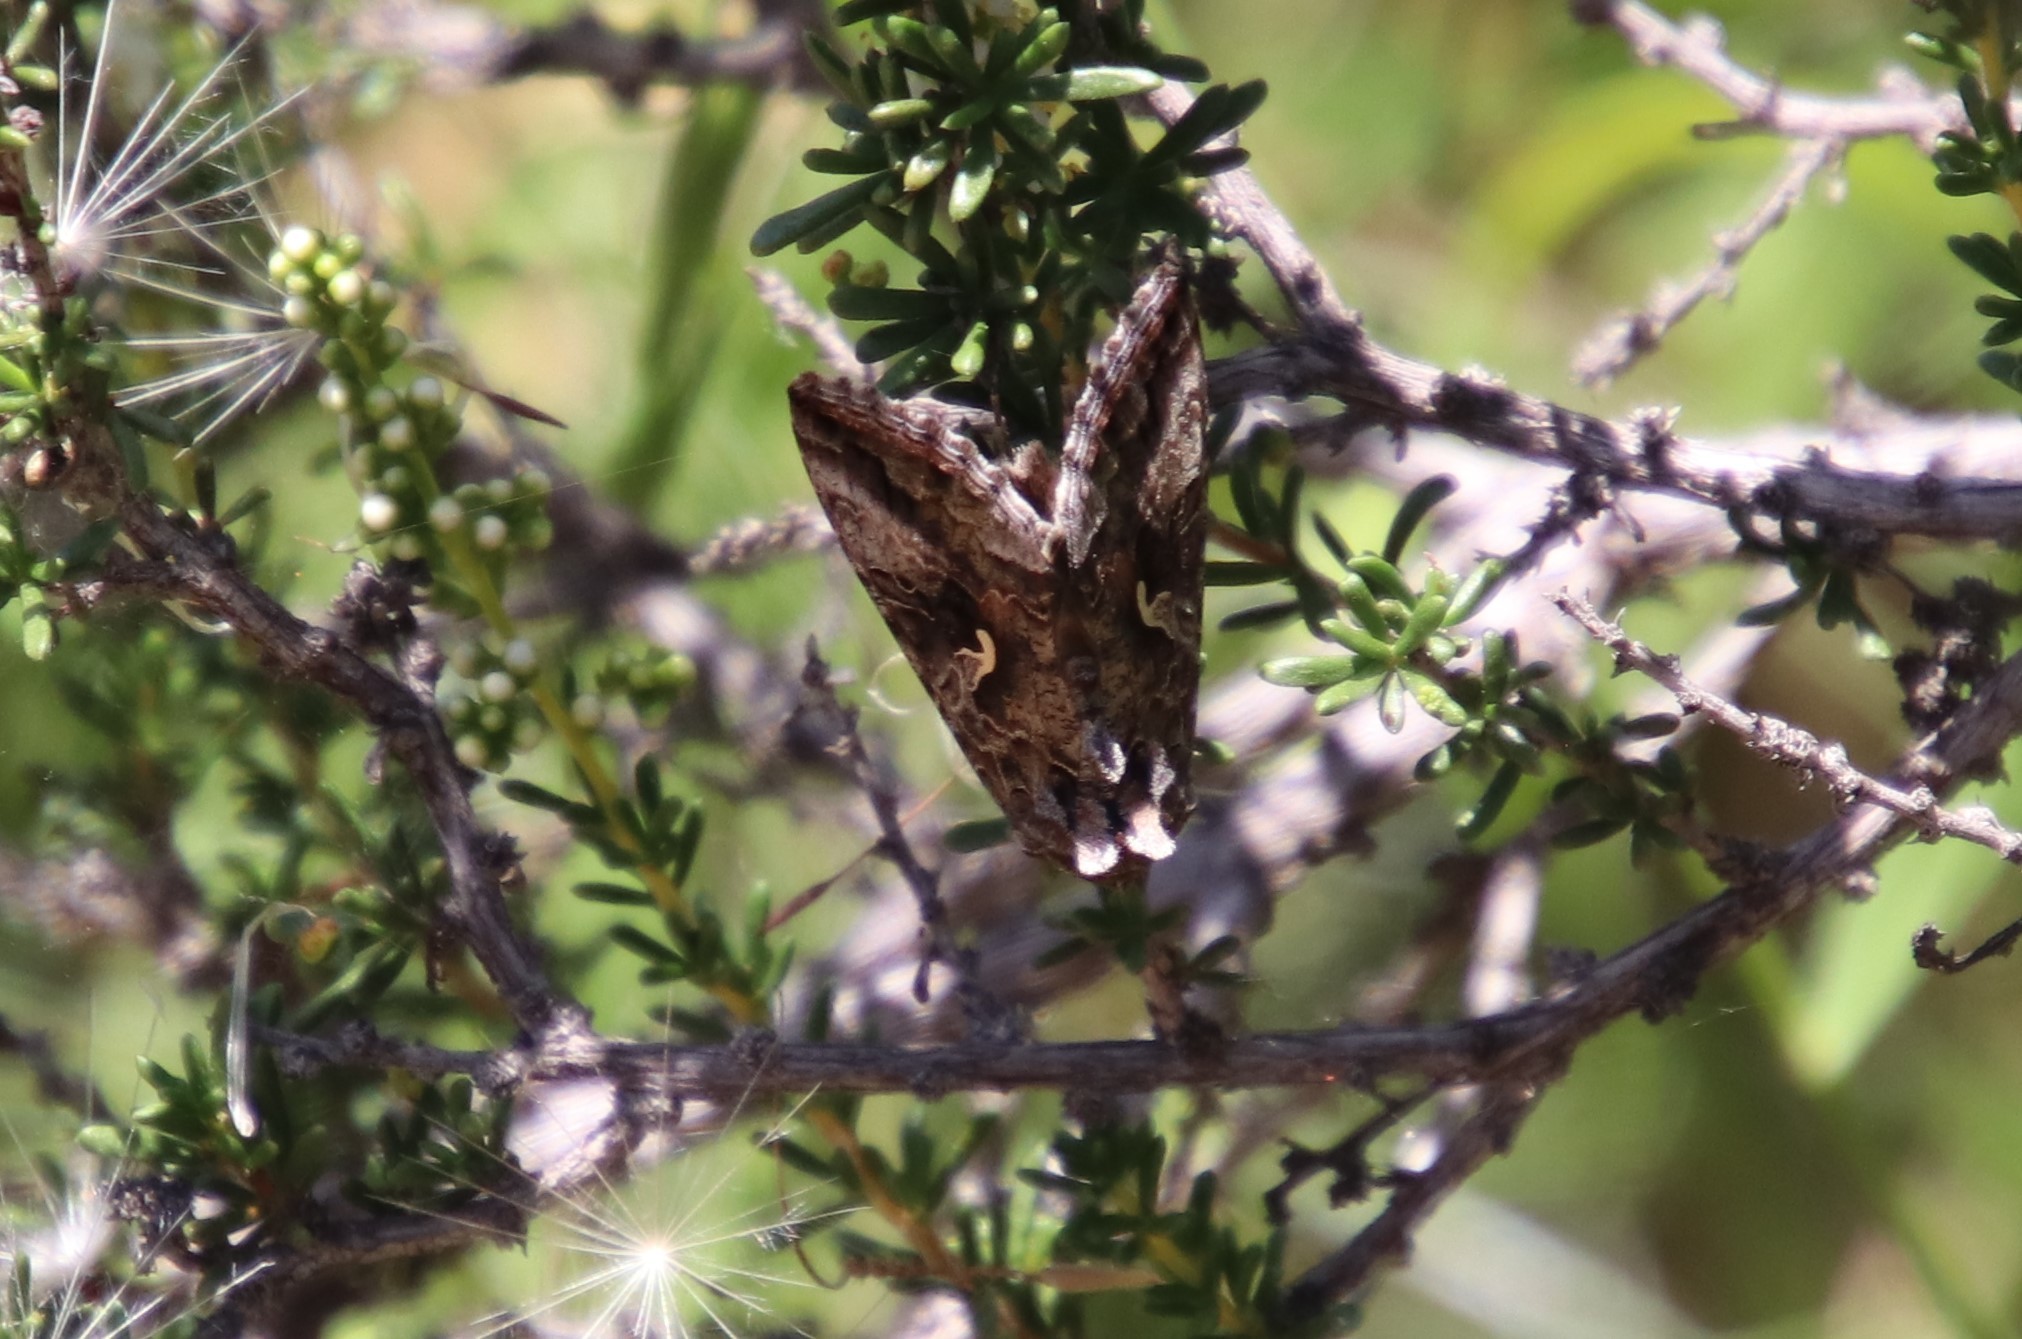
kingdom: Animalia
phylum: Arthropoda
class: Insecta
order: Lepidoptera
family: Noctuidae
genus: Autographa
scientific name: Autographa californica
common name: Alfalfa looper
